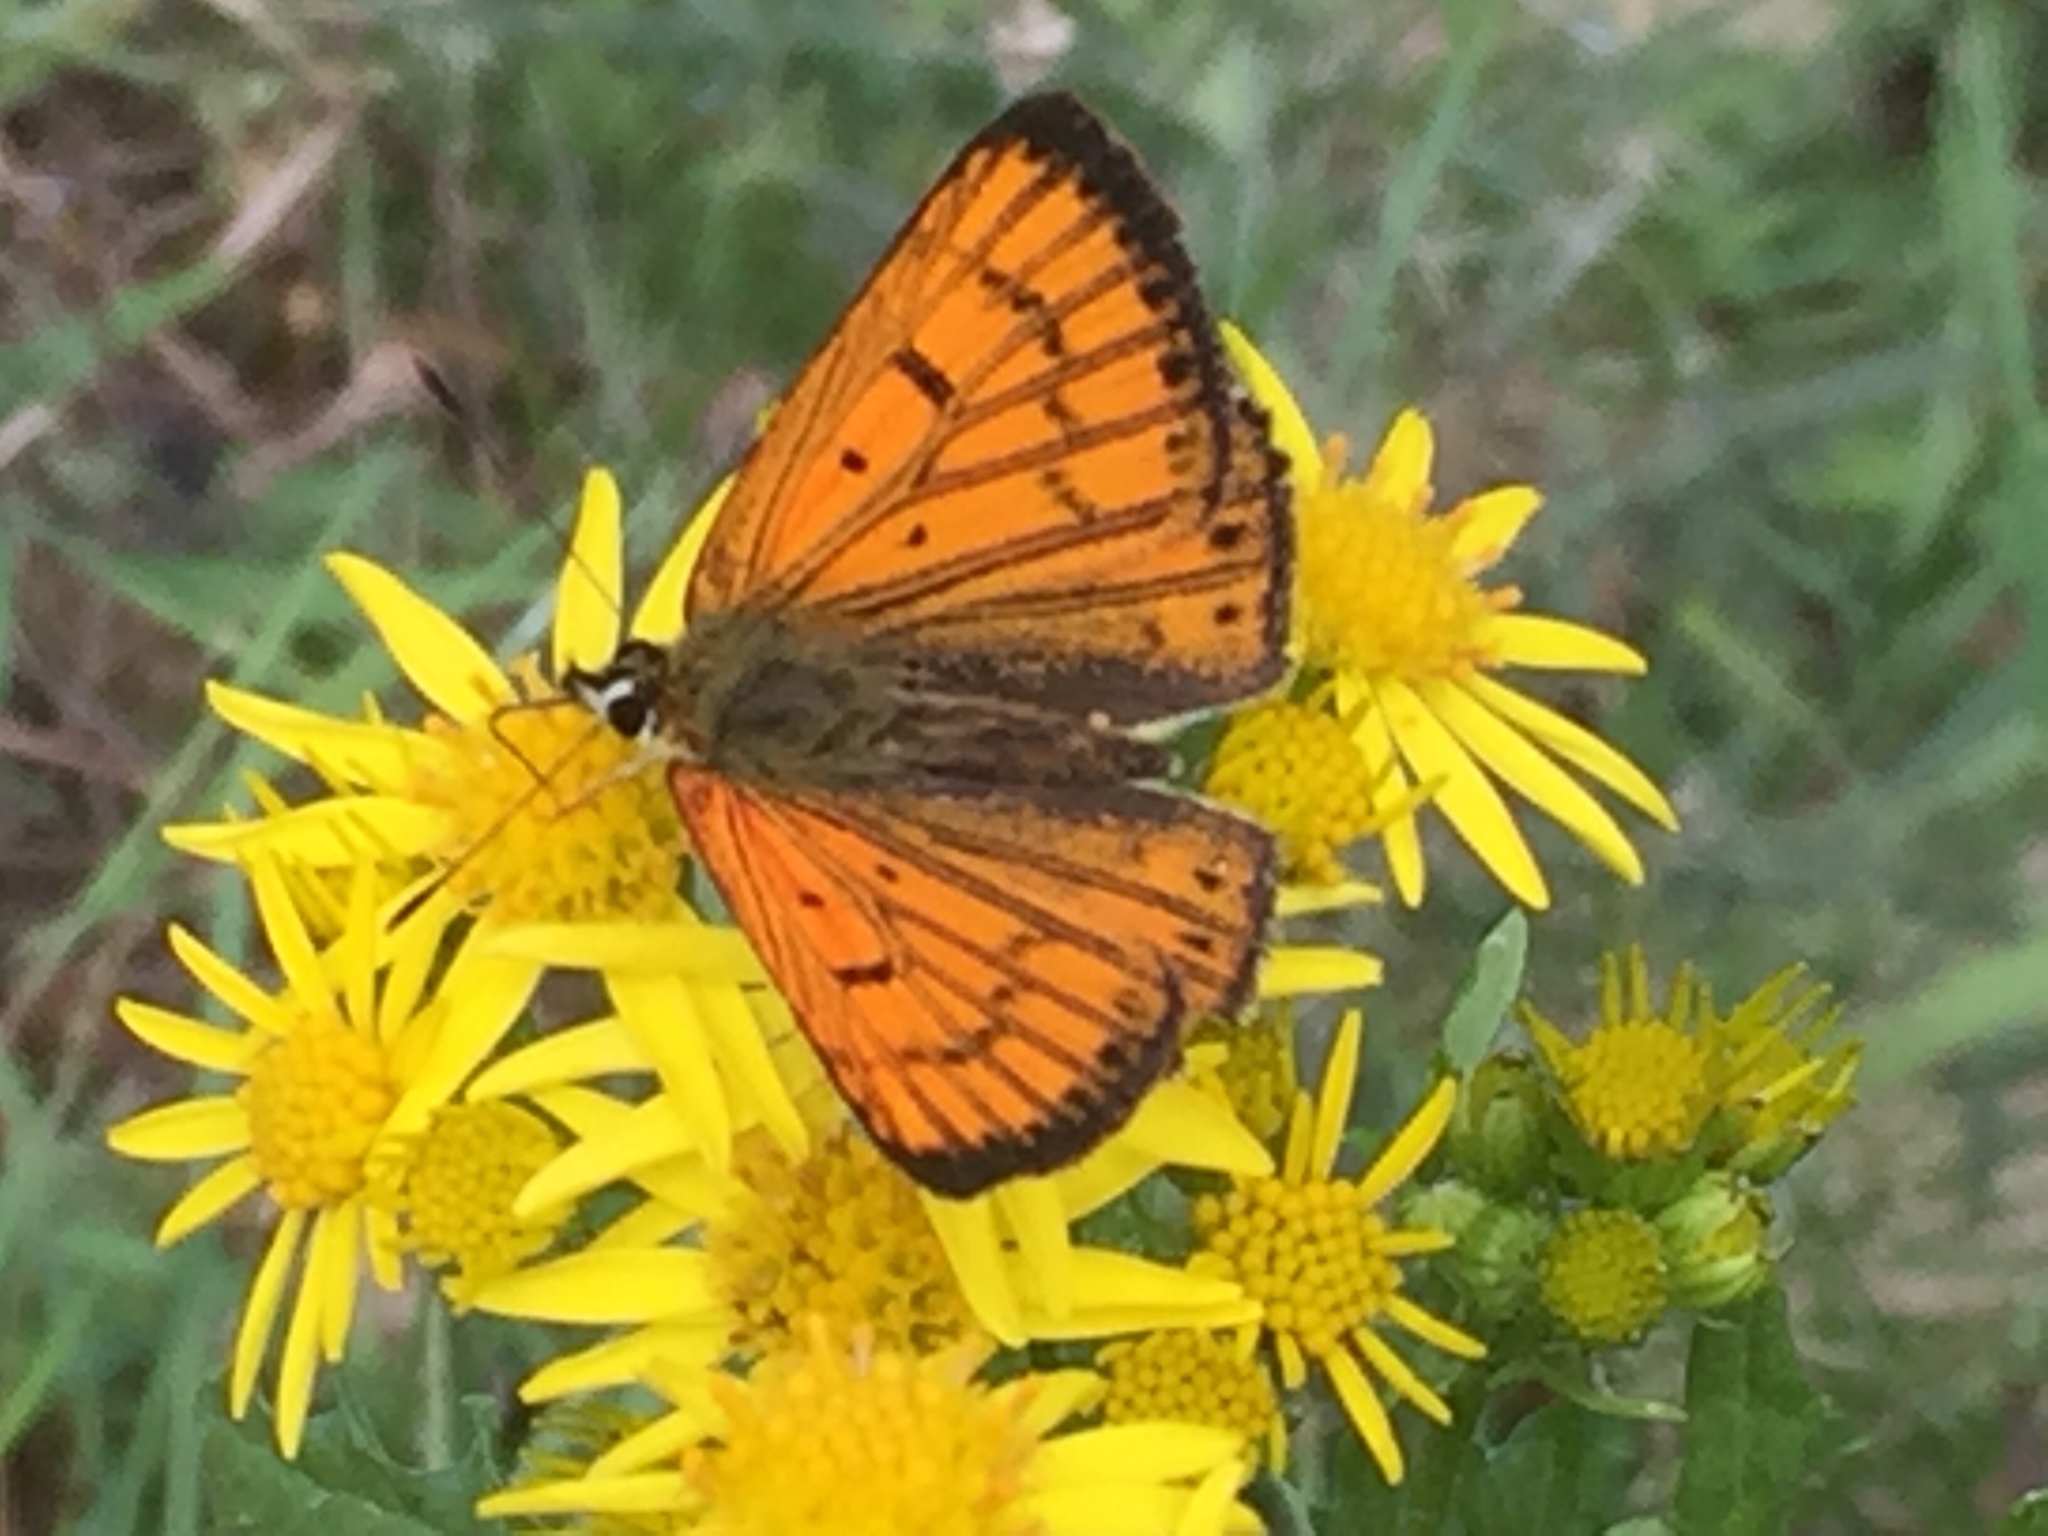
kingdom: Animalia
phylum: Arthropoda
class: Insecta
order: Lepidoptera
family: Lycaenidae
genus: Lycaena
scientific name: Lycaena salustius
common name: North island coastal copper
